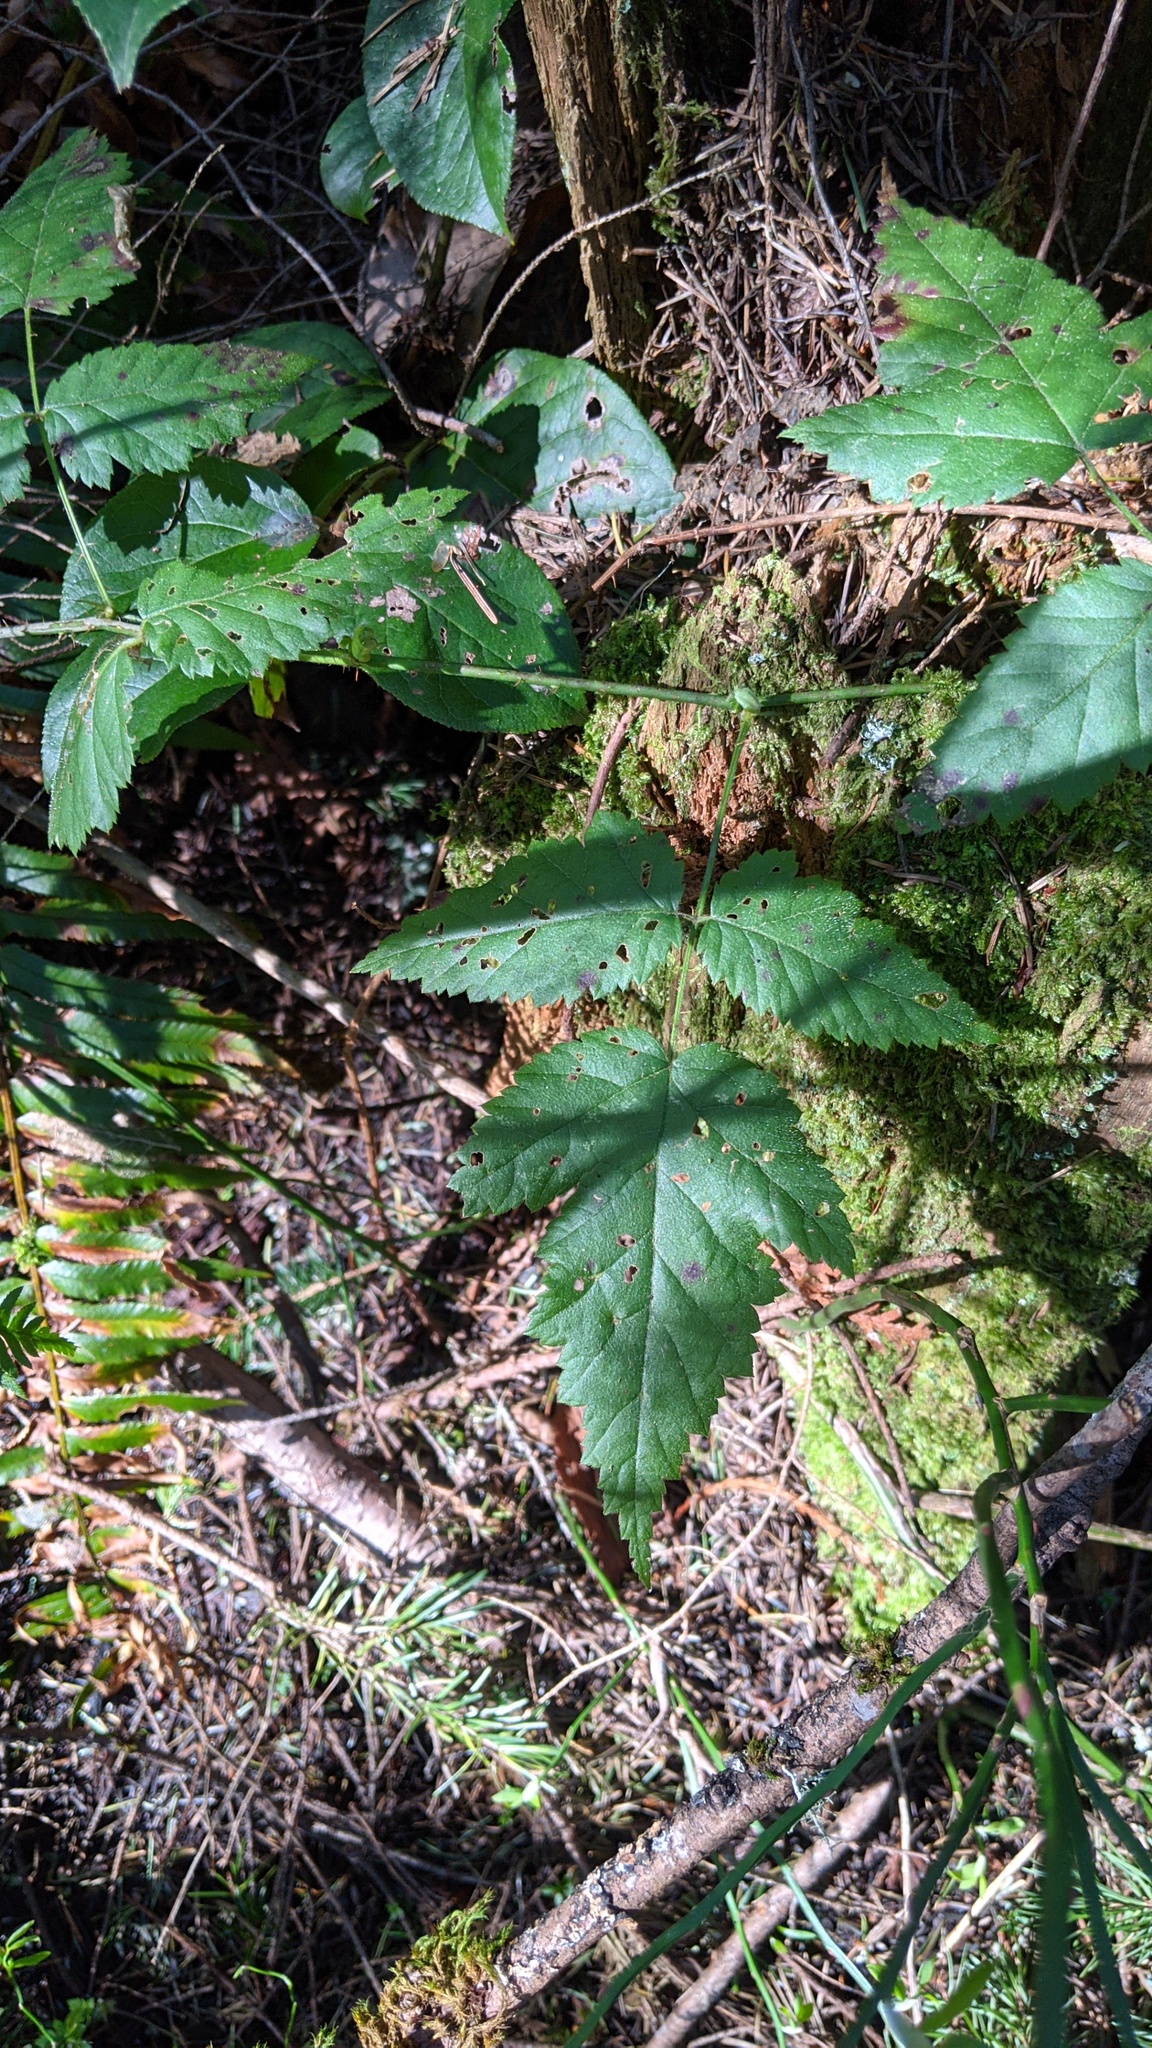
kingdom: Plantae
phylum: Tracheophyta
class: Magnoliopsida
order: Rosales
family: Rosaceae
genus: Rubus
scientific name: Rubus ursinus
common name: Pacific blackberry
